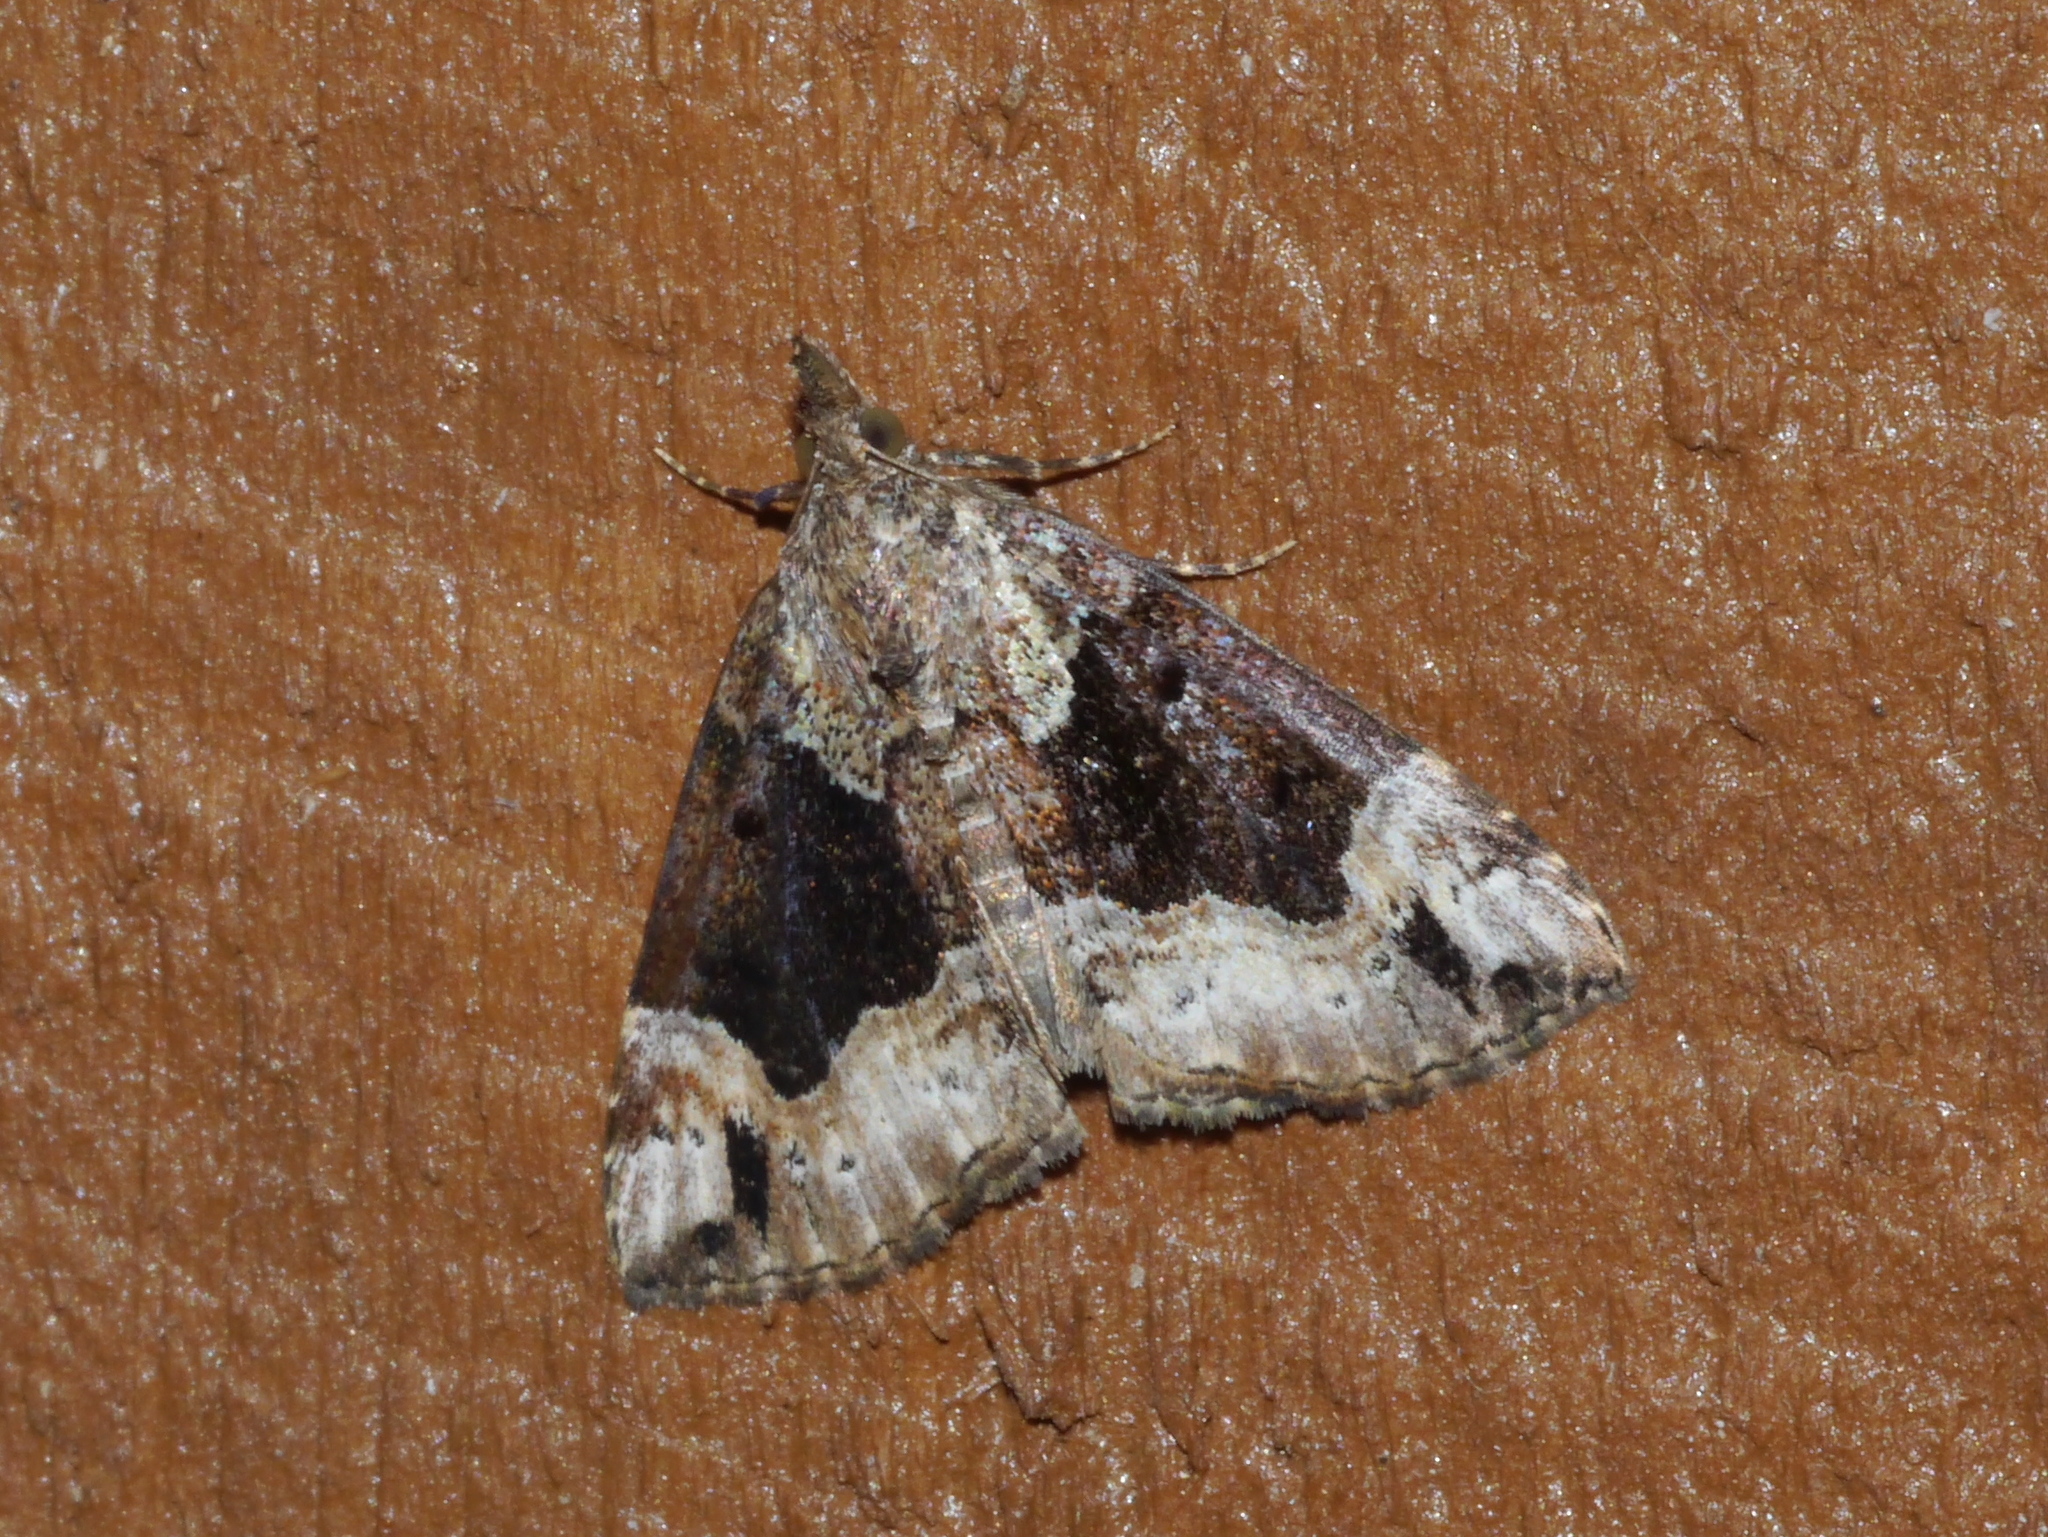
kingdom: Animalia
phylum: Arthropoda
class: Insecta
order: Lepidoptera
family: Erebidae
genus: Hypena
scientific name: Hypena palparia
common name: Mottled bomolocha moth
